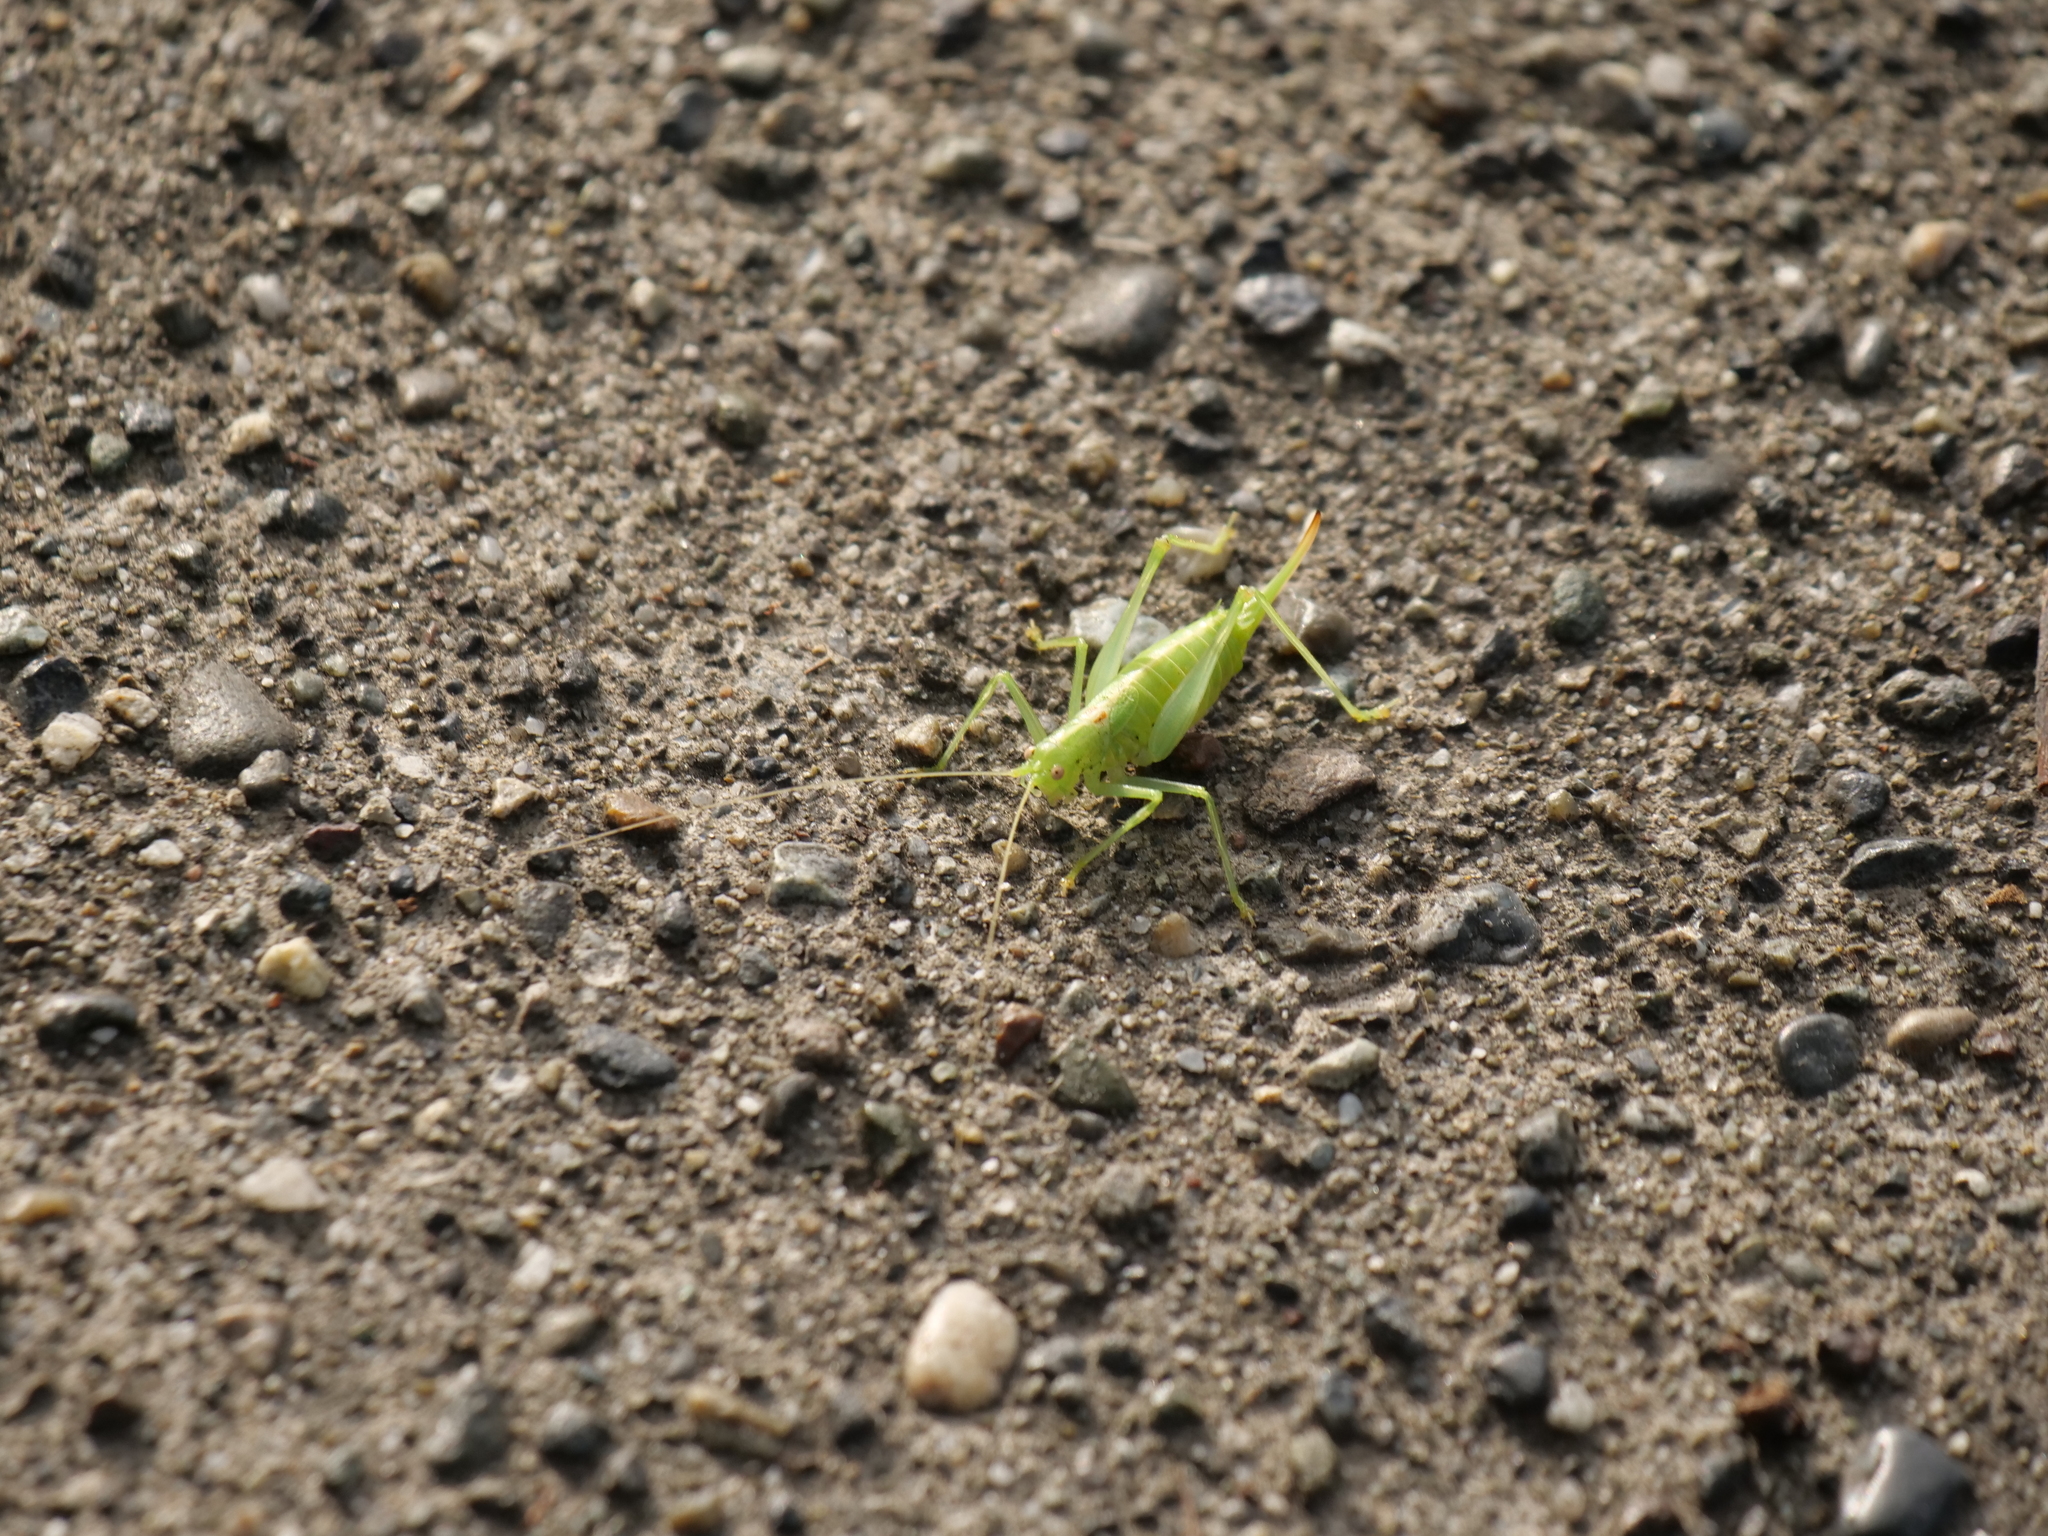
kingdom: Animalia
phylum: Arthropoda
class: Insecta
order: Orthoptera
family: Tettigoniidae
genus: Meconema
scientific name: Meconema meridionale
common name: Southern oak bush-cricket
